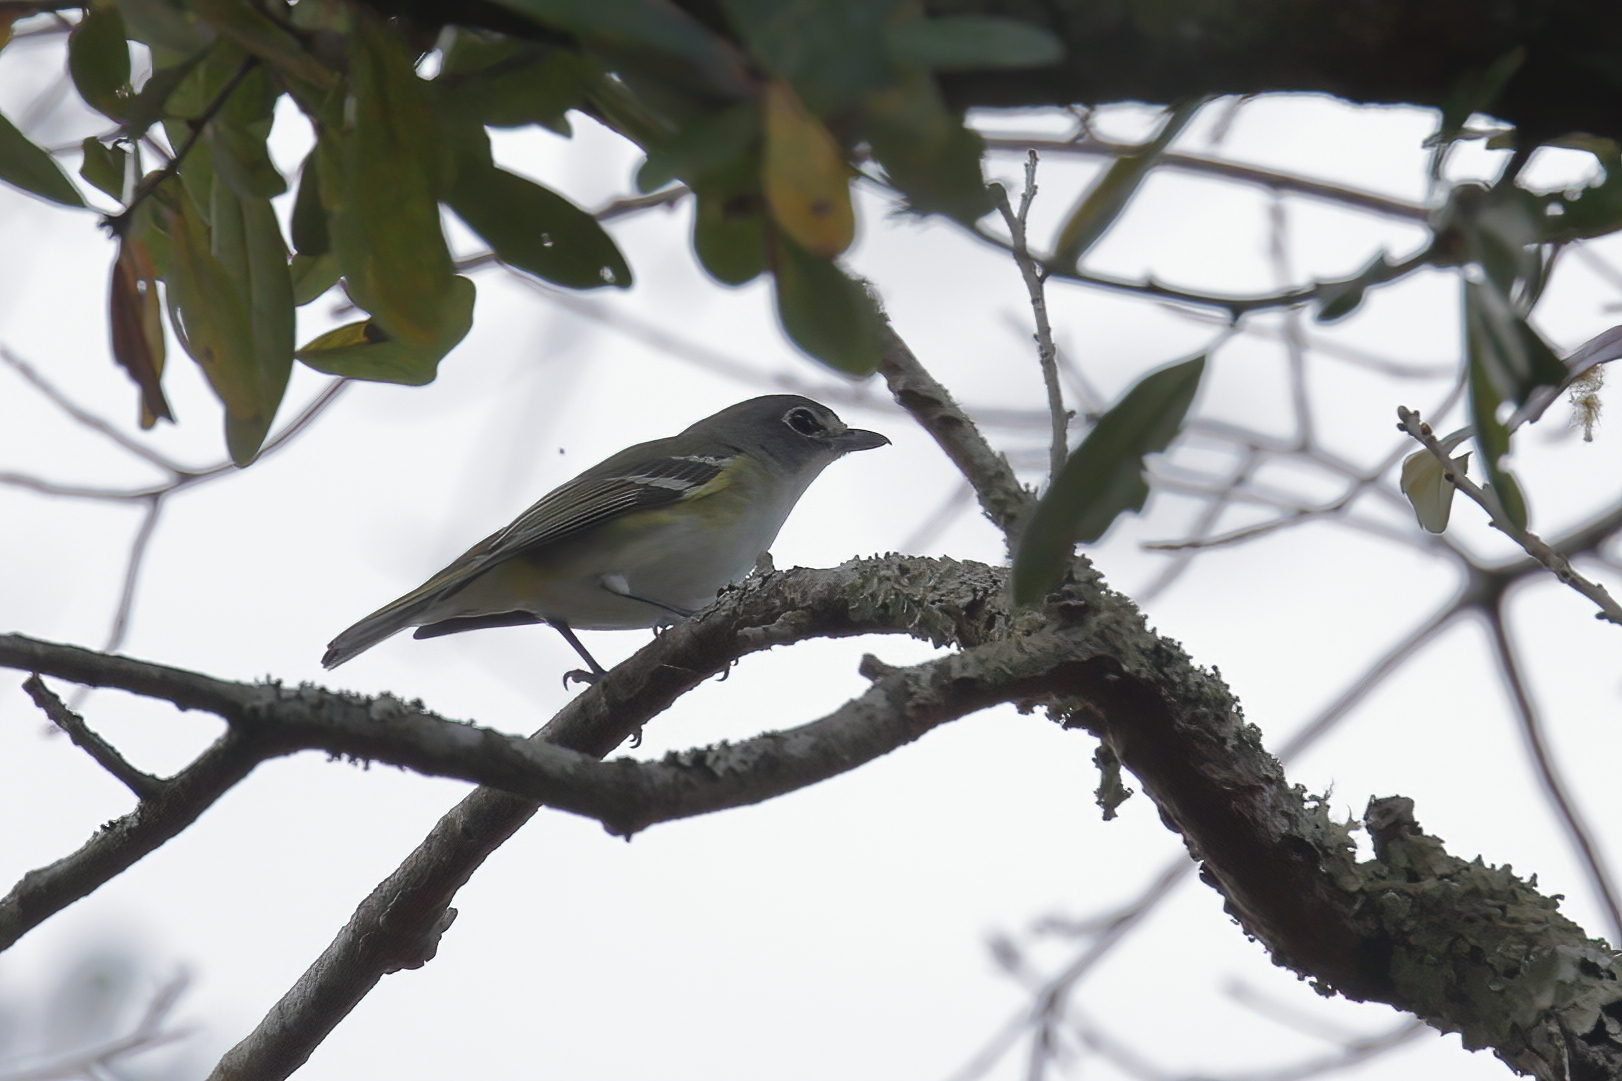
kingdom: Animalia
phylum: Chordata
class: Aves
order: Passeriformes
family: Vireonidae
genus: Vireo
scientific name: Vireo solitarius
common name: Blue-headed vireo
